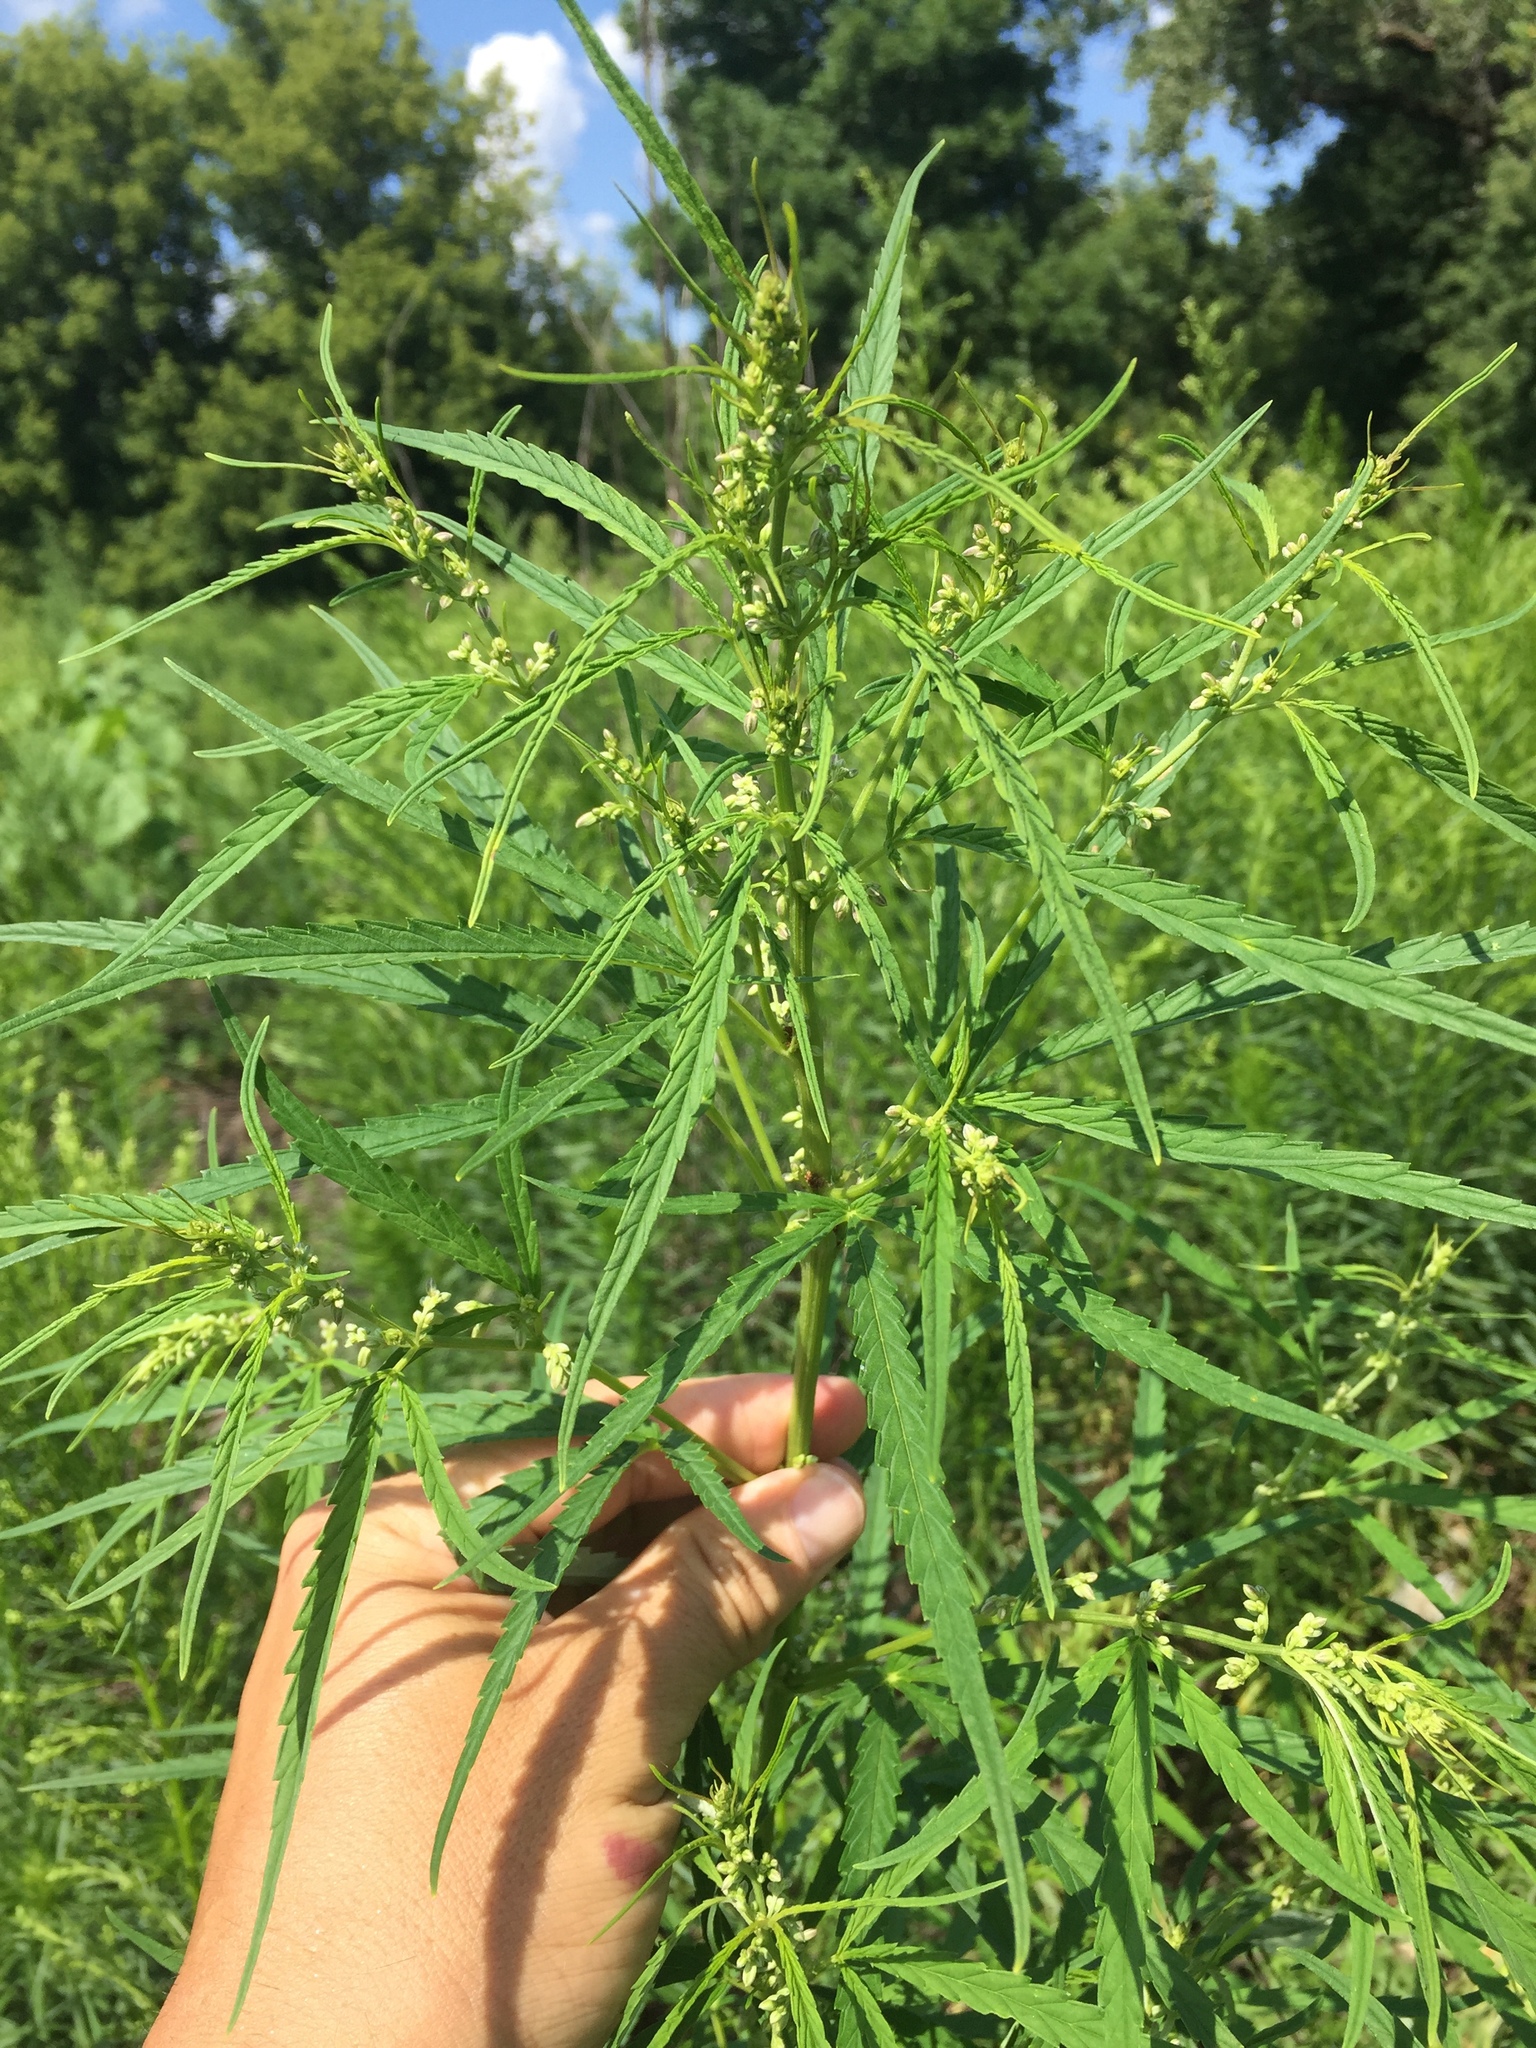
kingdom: Plantae
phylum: Tracheophyta
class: Magnoliopsida
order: Rosales
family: Cannabaceae
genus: Cannabis
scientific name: Cannabis sativa
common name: Hemp
